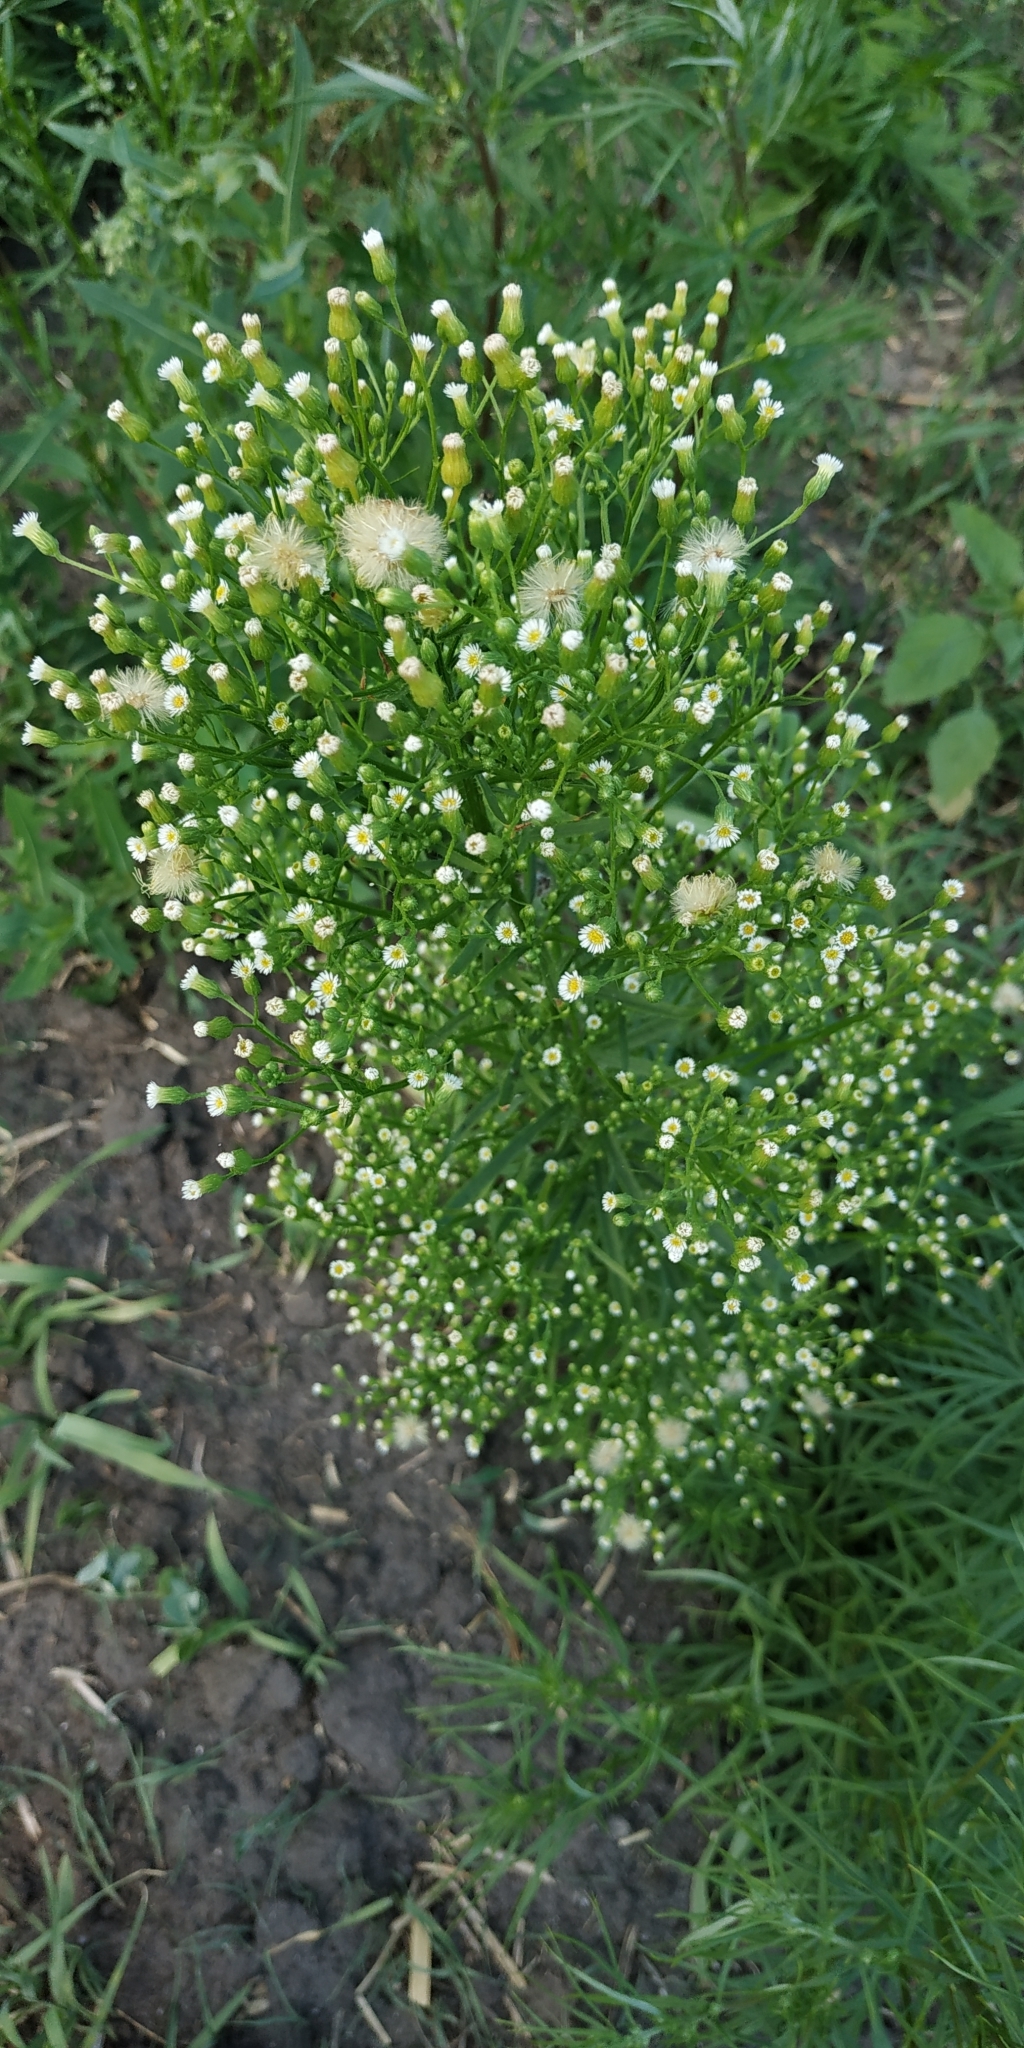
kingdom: Plantae
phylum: Tracheophyta
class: Magnoliopsida
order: Asterales
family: Asteraceae
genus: Erigeron
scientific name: Erigeron canadensis
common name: Canadian fleabane
